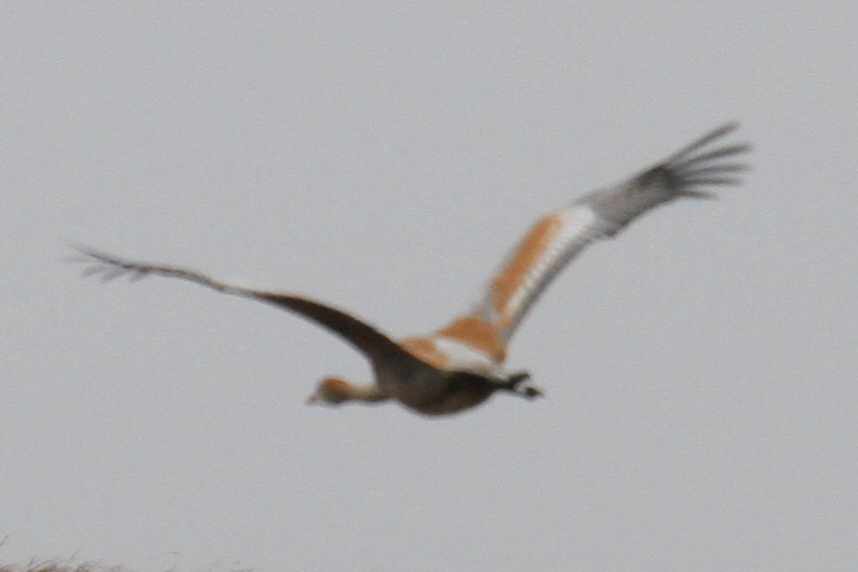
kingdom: Animalia
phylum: Chordata
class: Aves
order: Gruiformes
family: Gruidae
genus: Grus
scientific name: Grus canadensis
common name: Sandhill crane
